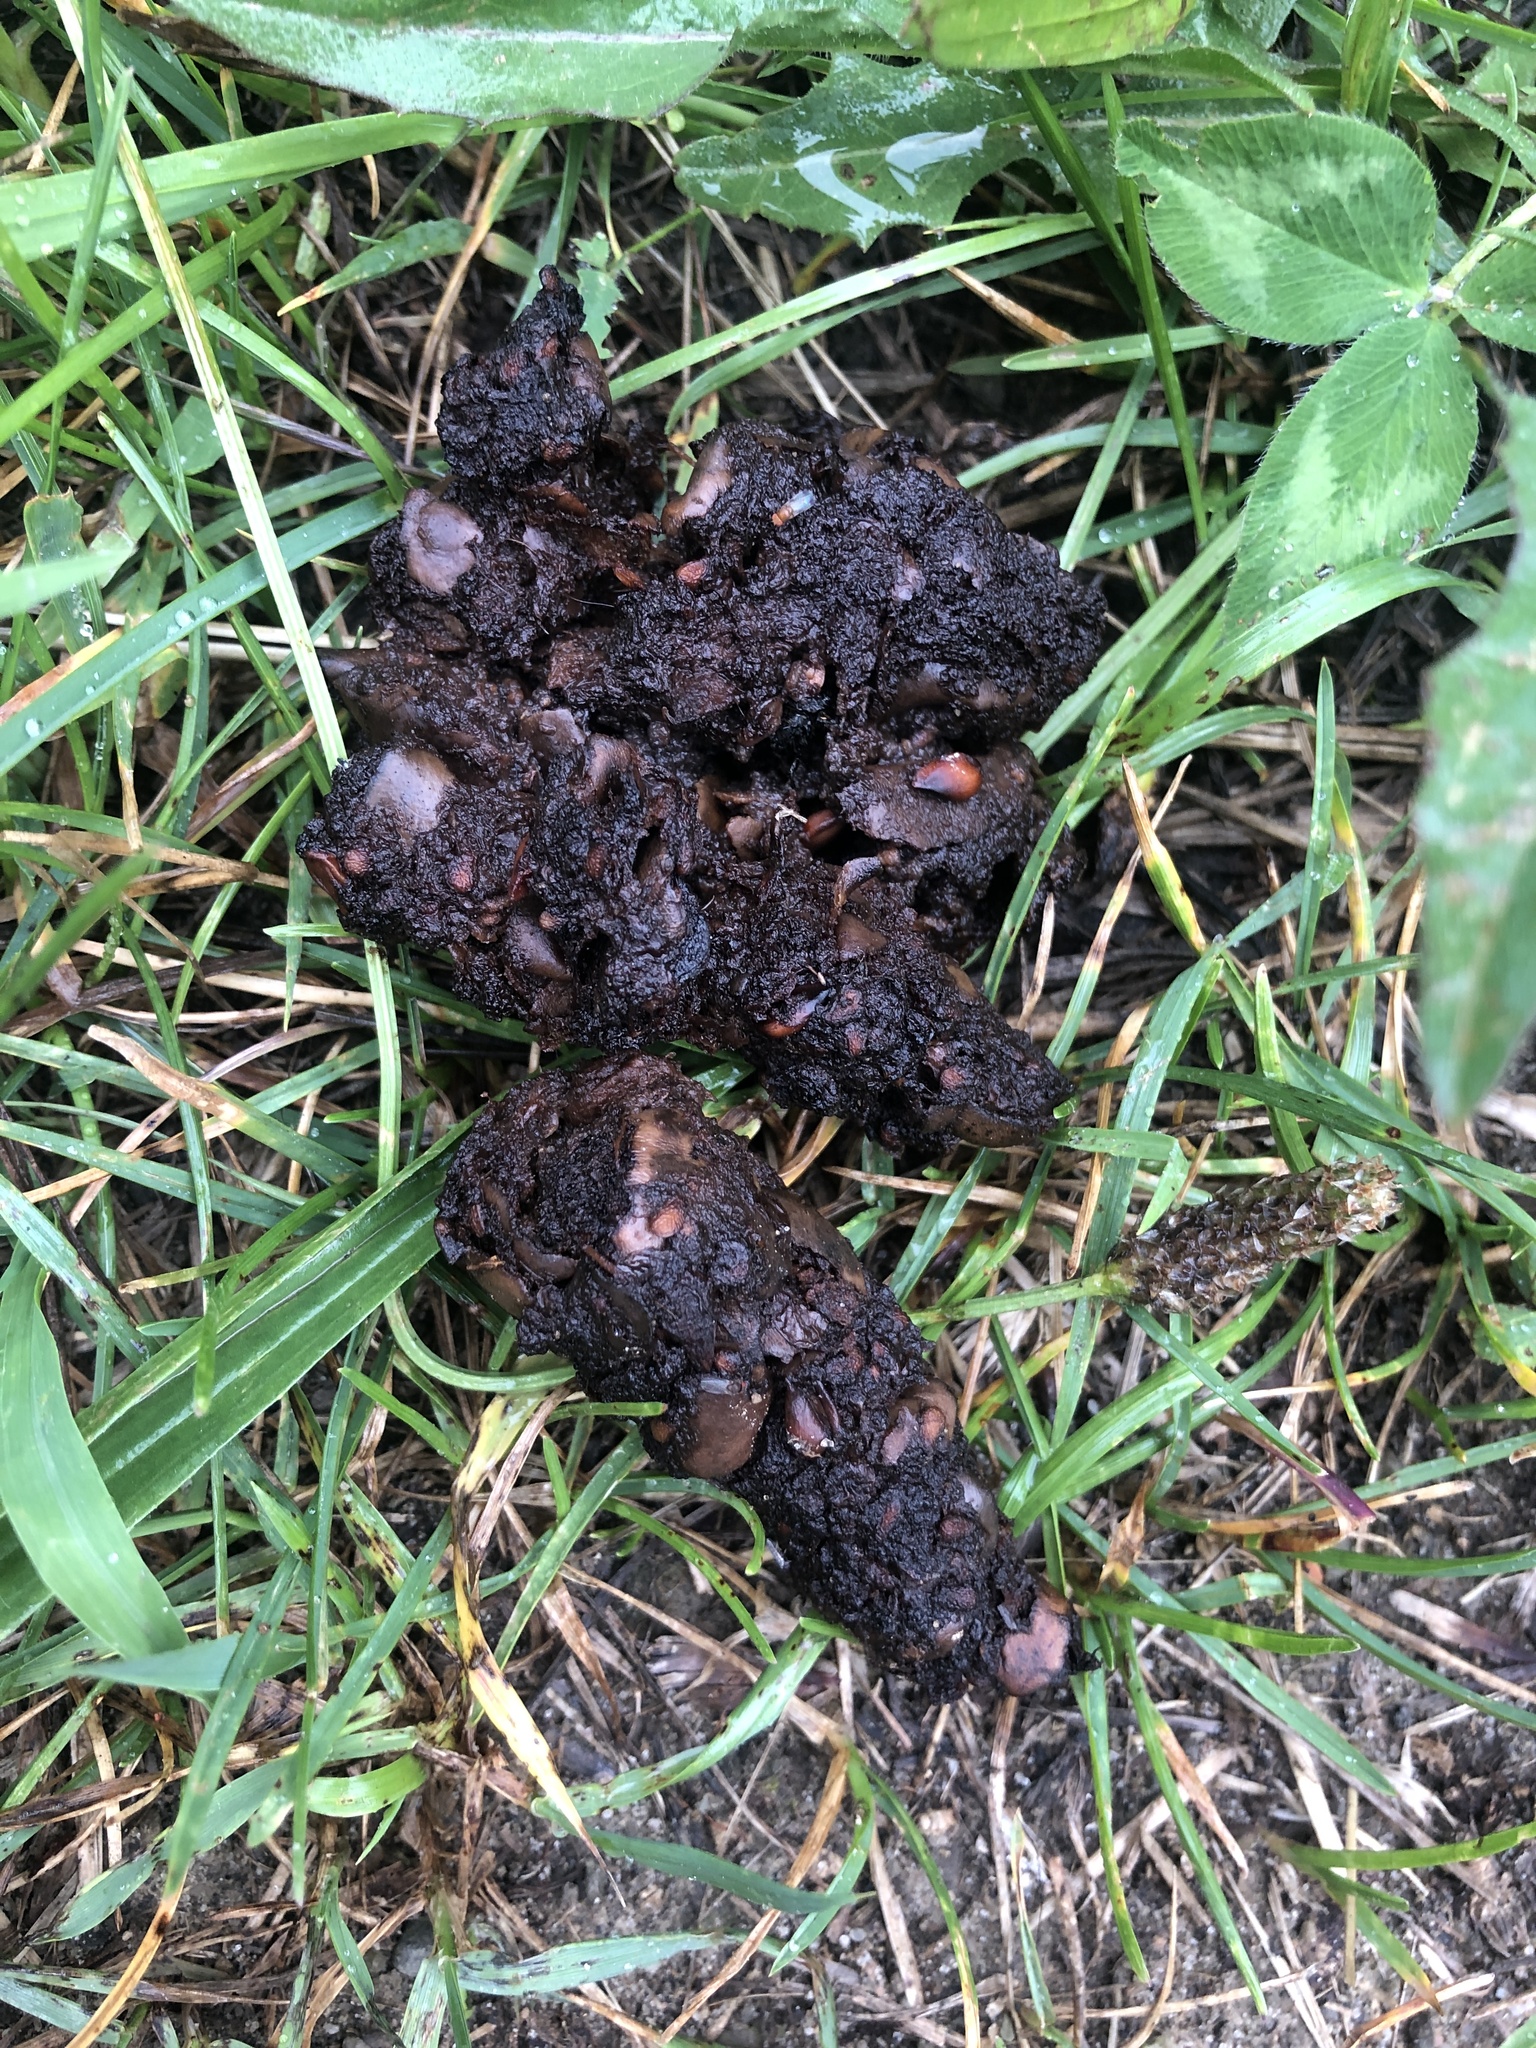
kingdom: Animalia
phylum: Chordata
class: Mammalia
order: Carnivora
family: Ursidae
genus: Ursus
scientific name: Ursus americanus
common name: American black bear
